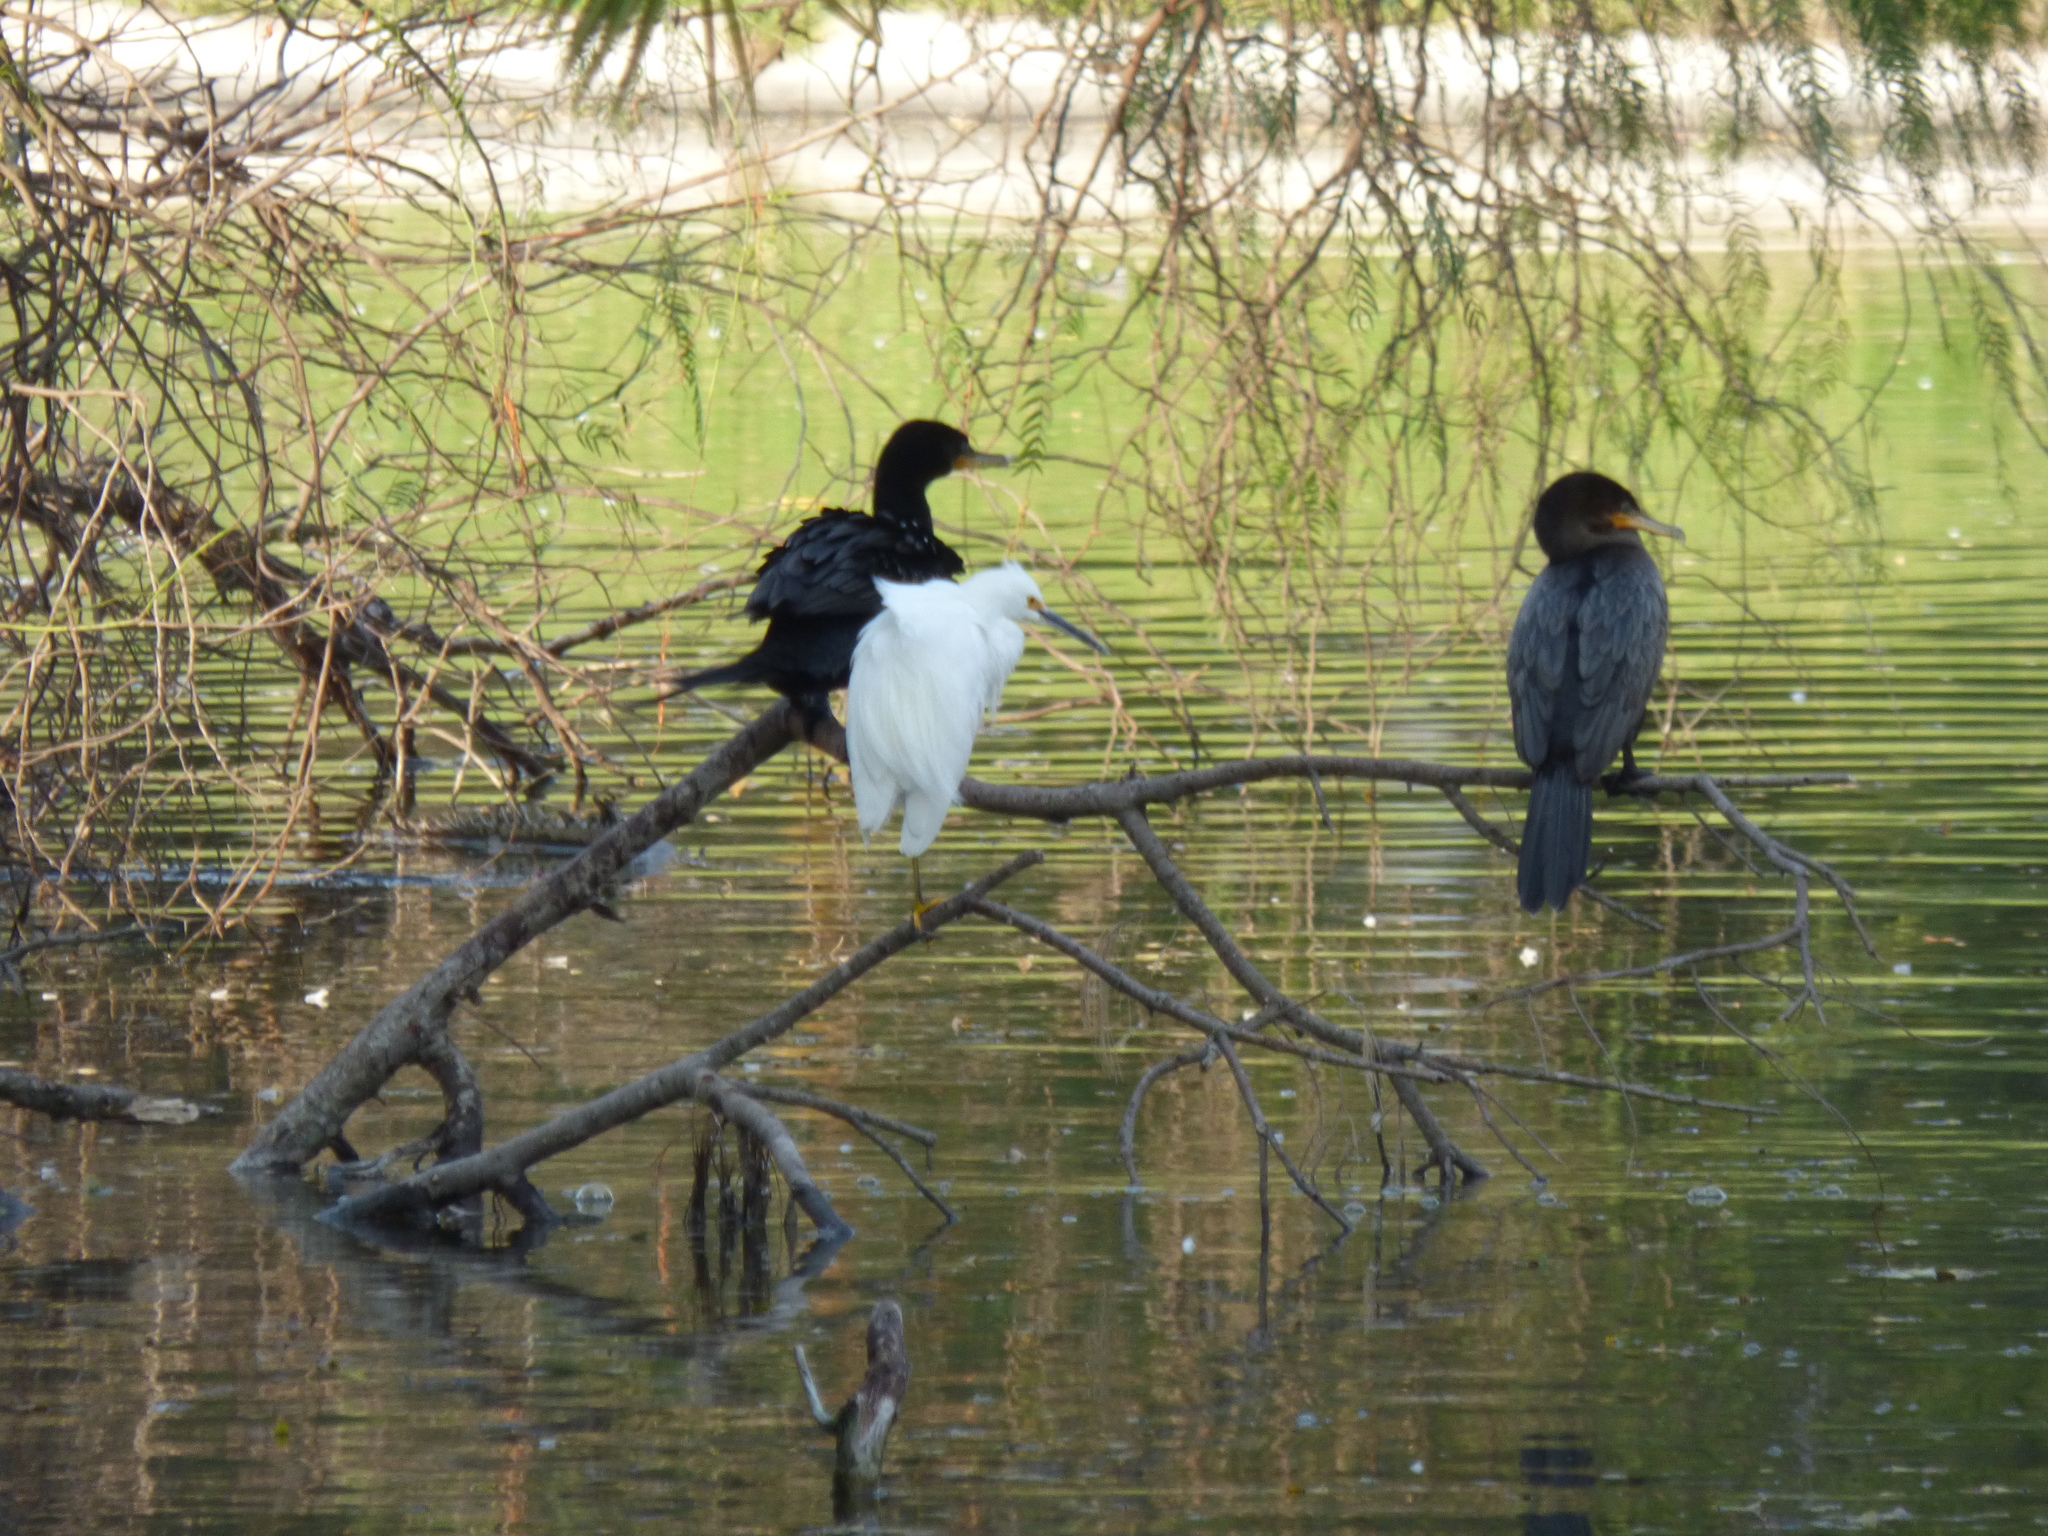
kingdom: Animalia
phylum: Chordata
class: Aves
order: Pelecaniformes
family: Ardeidae
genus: Egretta
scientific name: Egretta thula
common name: Snowy egret
